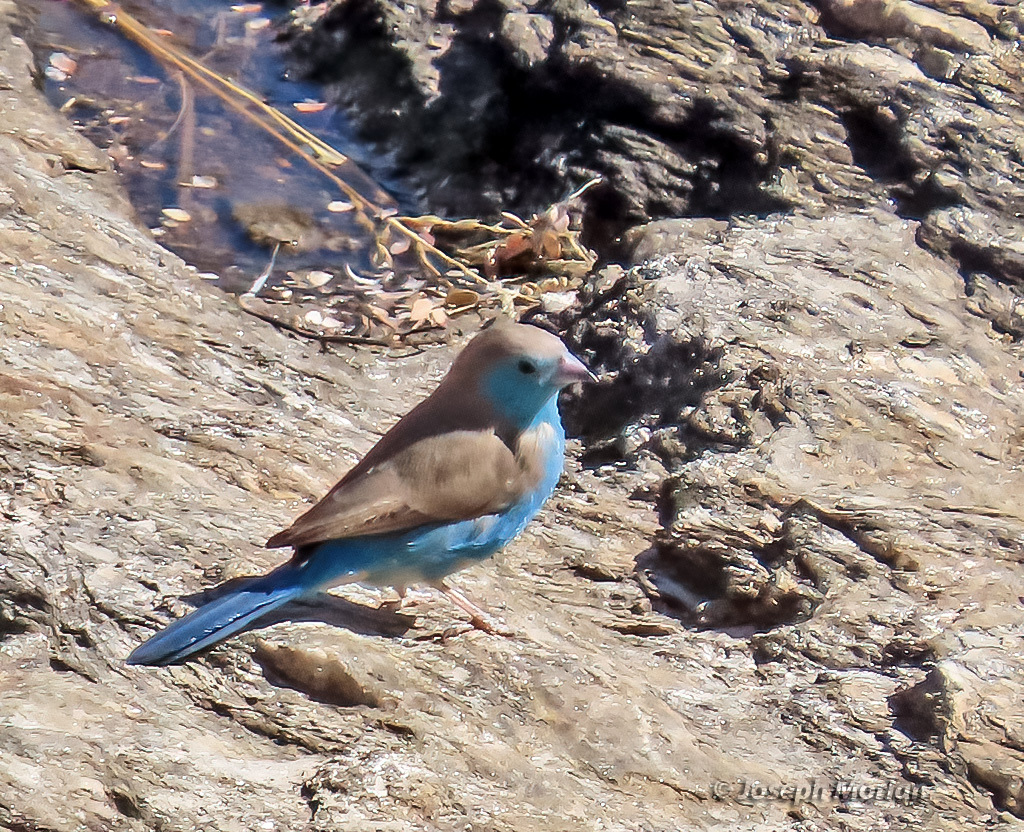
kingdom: Animalia
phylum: Chordata
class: Aves
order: Passeriformes
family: Estrildidae
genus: Uraeginthus
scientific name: Uraeginthus angolensis
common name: Blue waxbill
